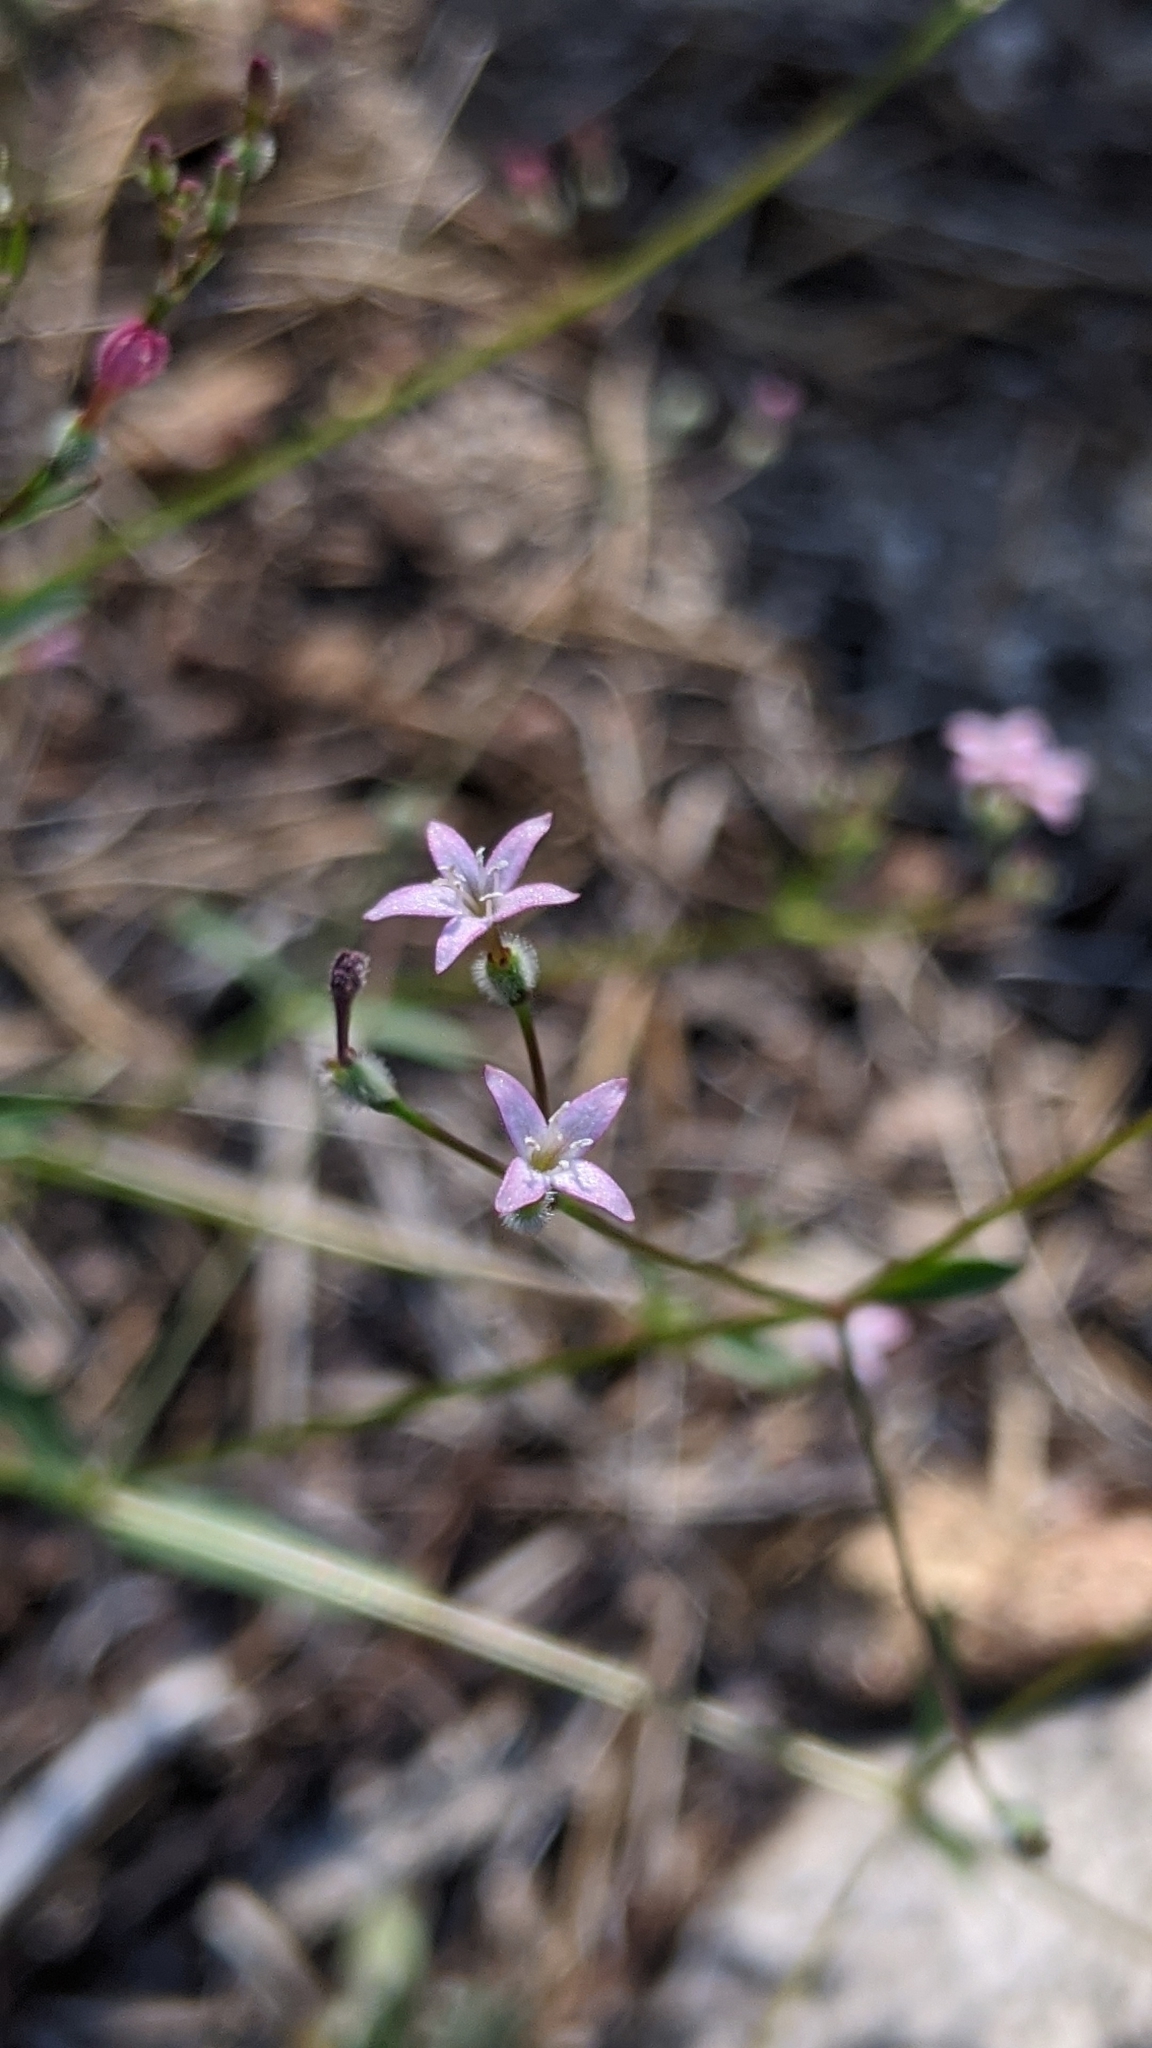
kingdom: Plantae
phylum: Tracheophyta
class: Magnoliopsida
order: Gentianales
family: Rubiaceae
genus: Kelloggia
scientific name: Kelloggia galioides
